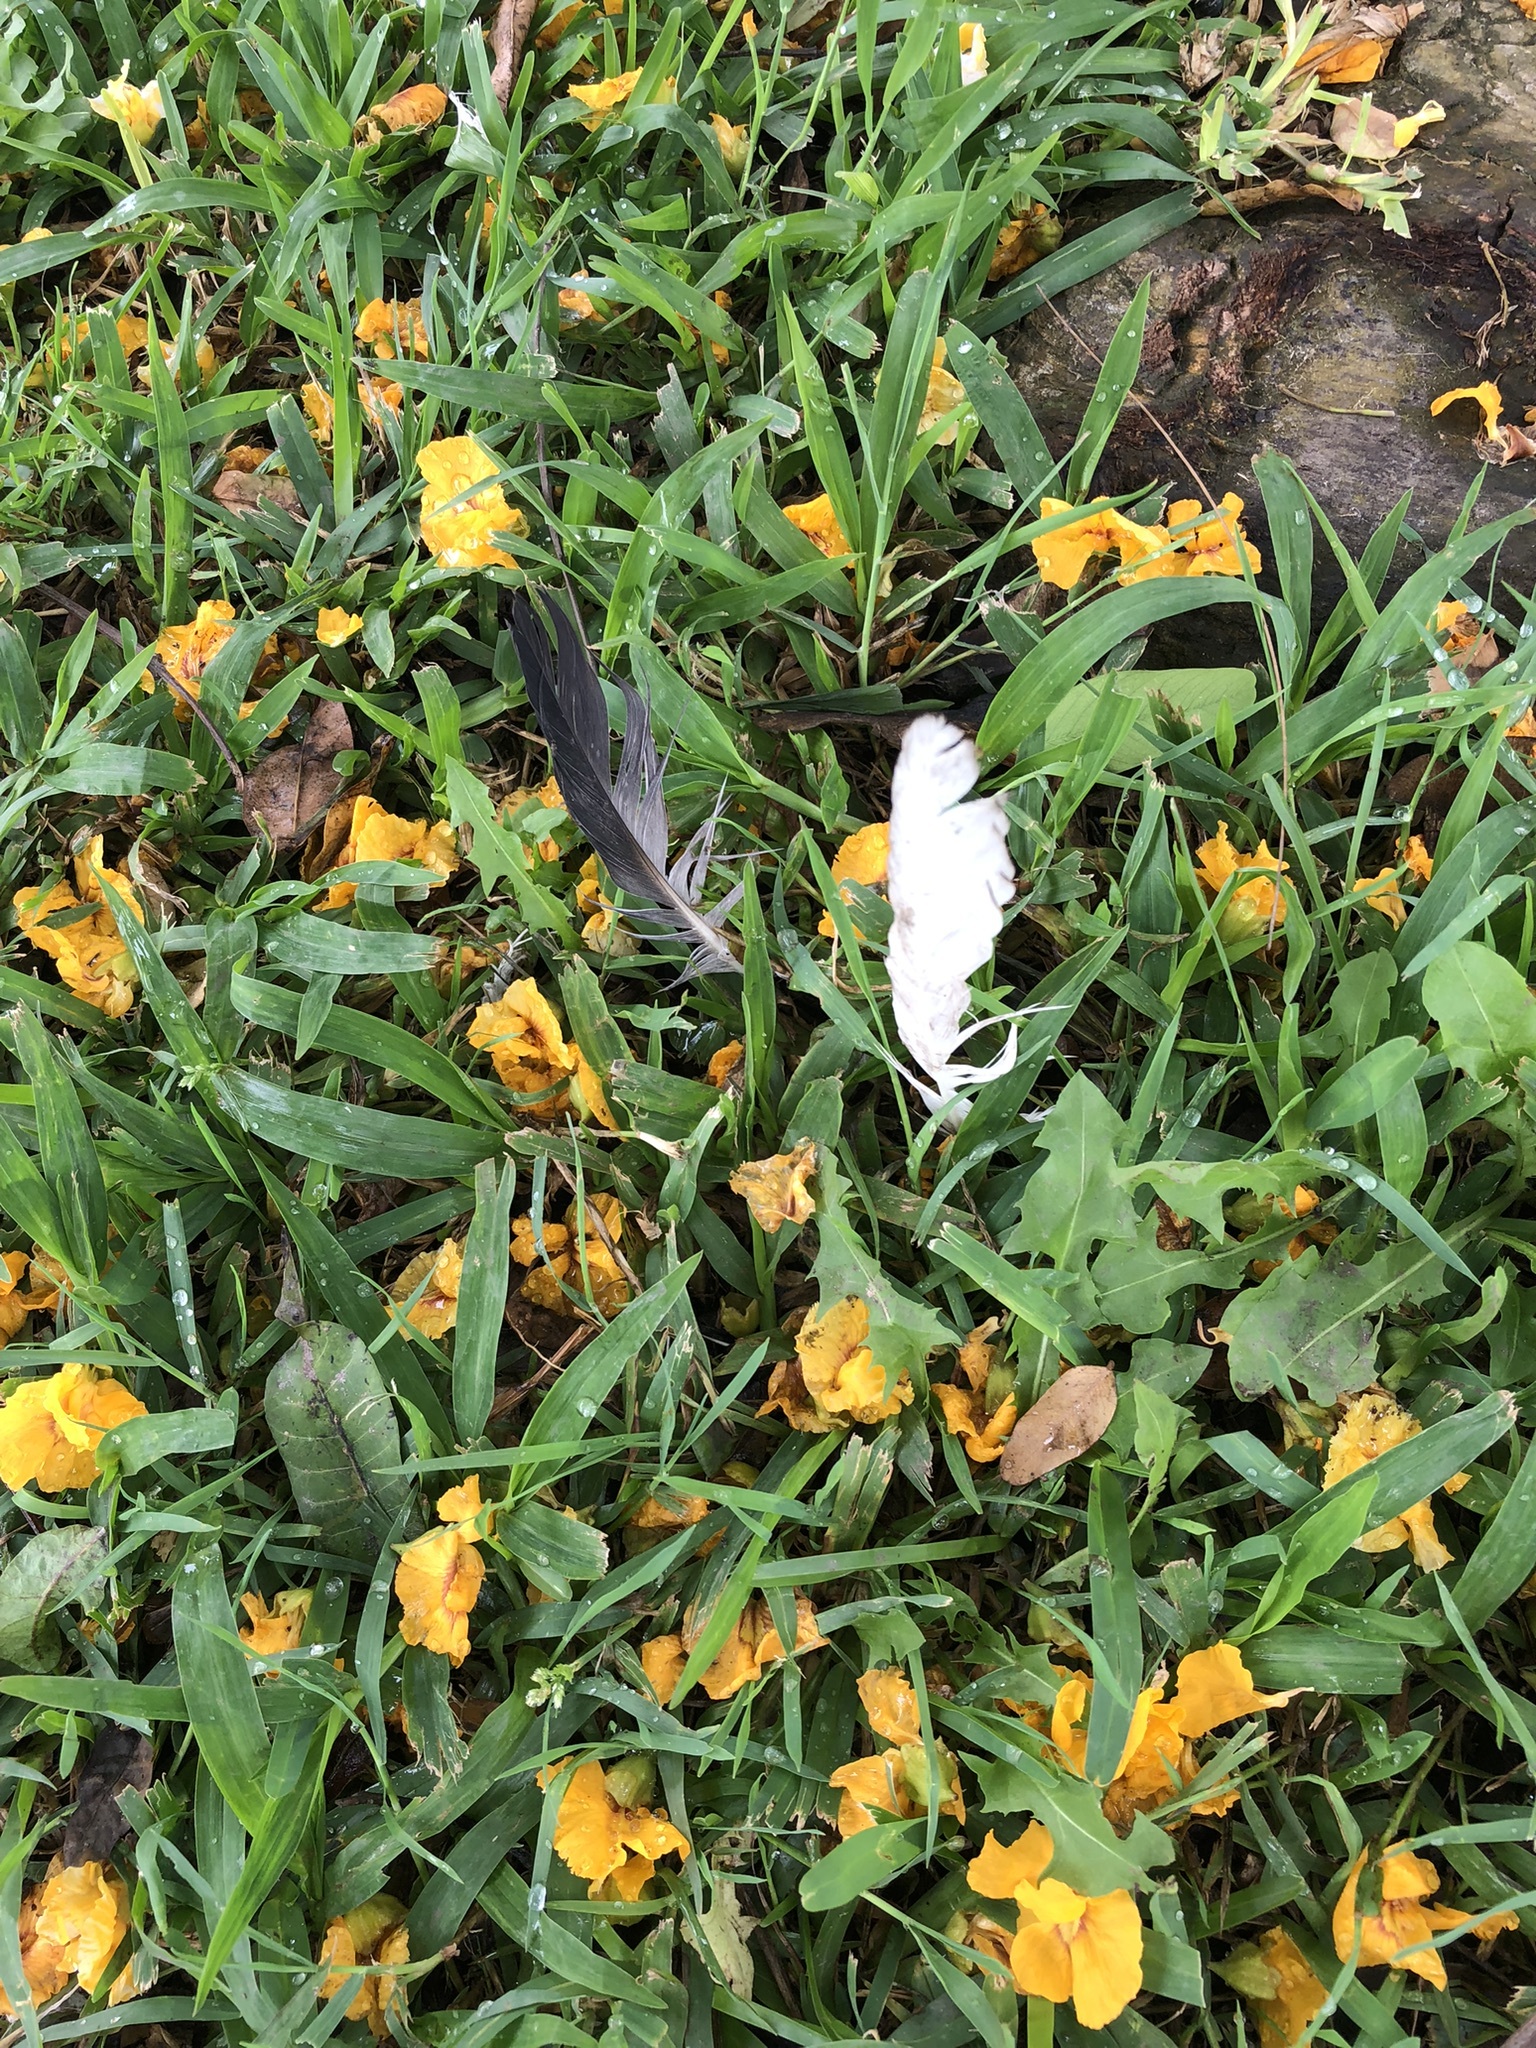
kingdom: Animalia
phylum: Chordata
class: Aves
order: Columbiformes
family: Columbidae
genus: Columba
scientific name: Columba livia
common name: Rock pigeon
